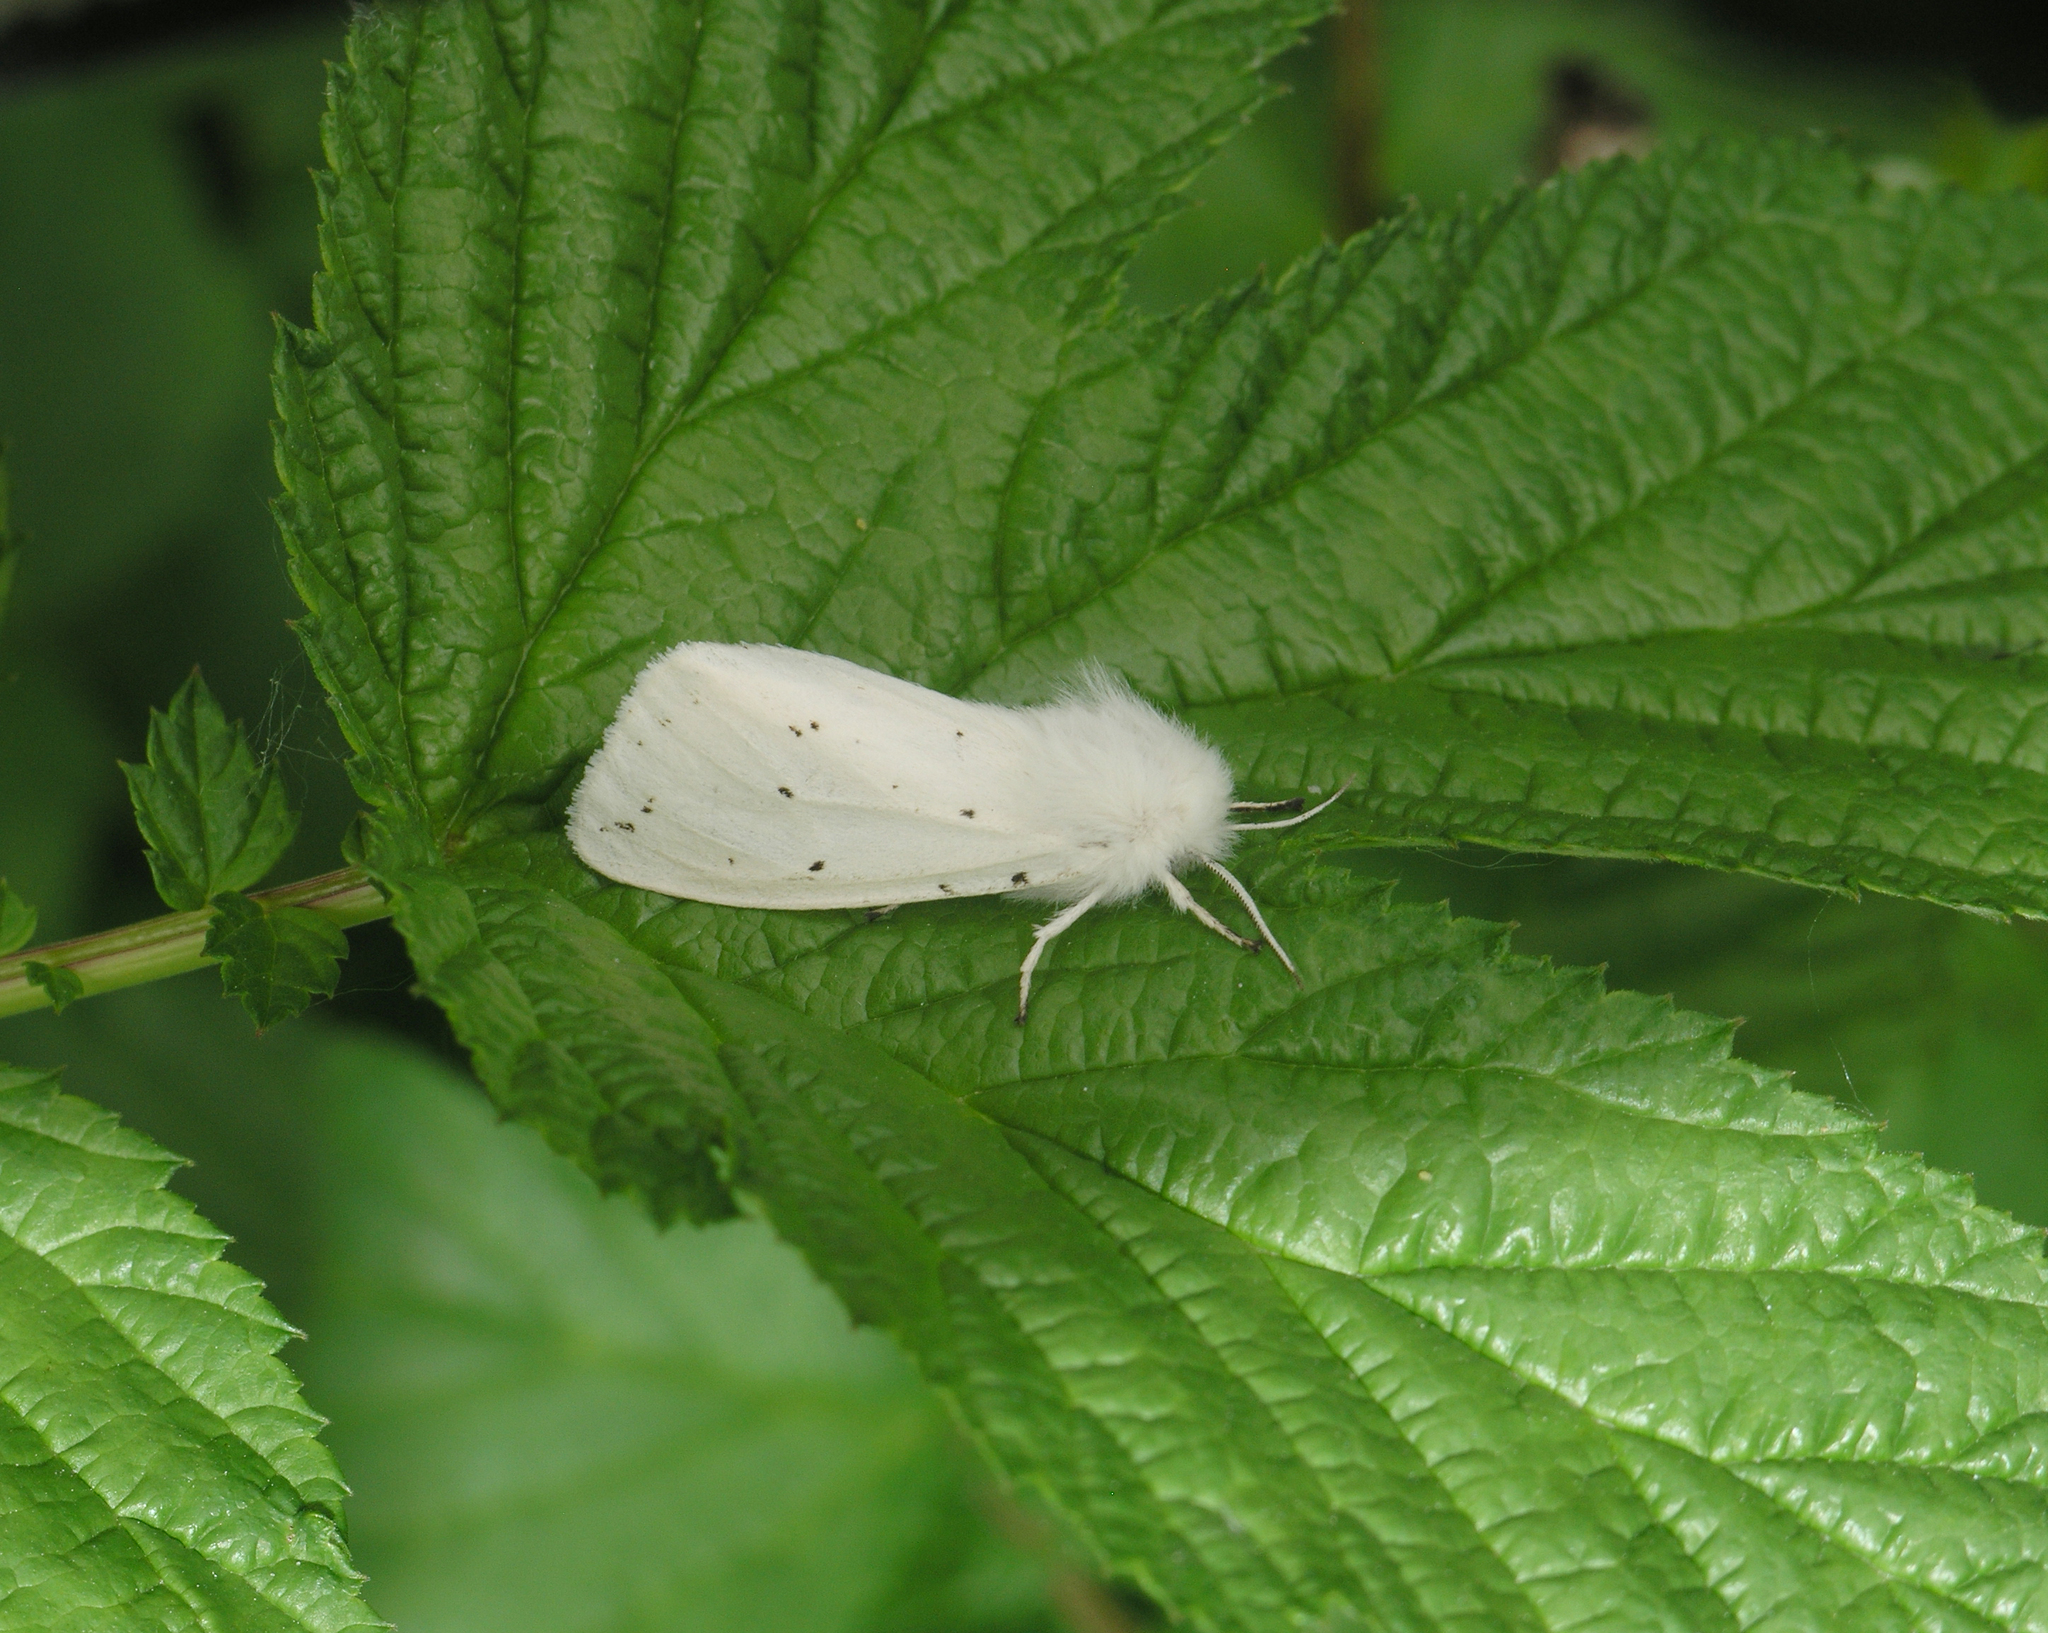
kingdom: Animalia
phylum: Arthropoda
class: Insecta
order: Lepidoptera
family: Erebidae
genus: Spilosoma
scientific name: Spilosoma urticae
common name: Water ermine
